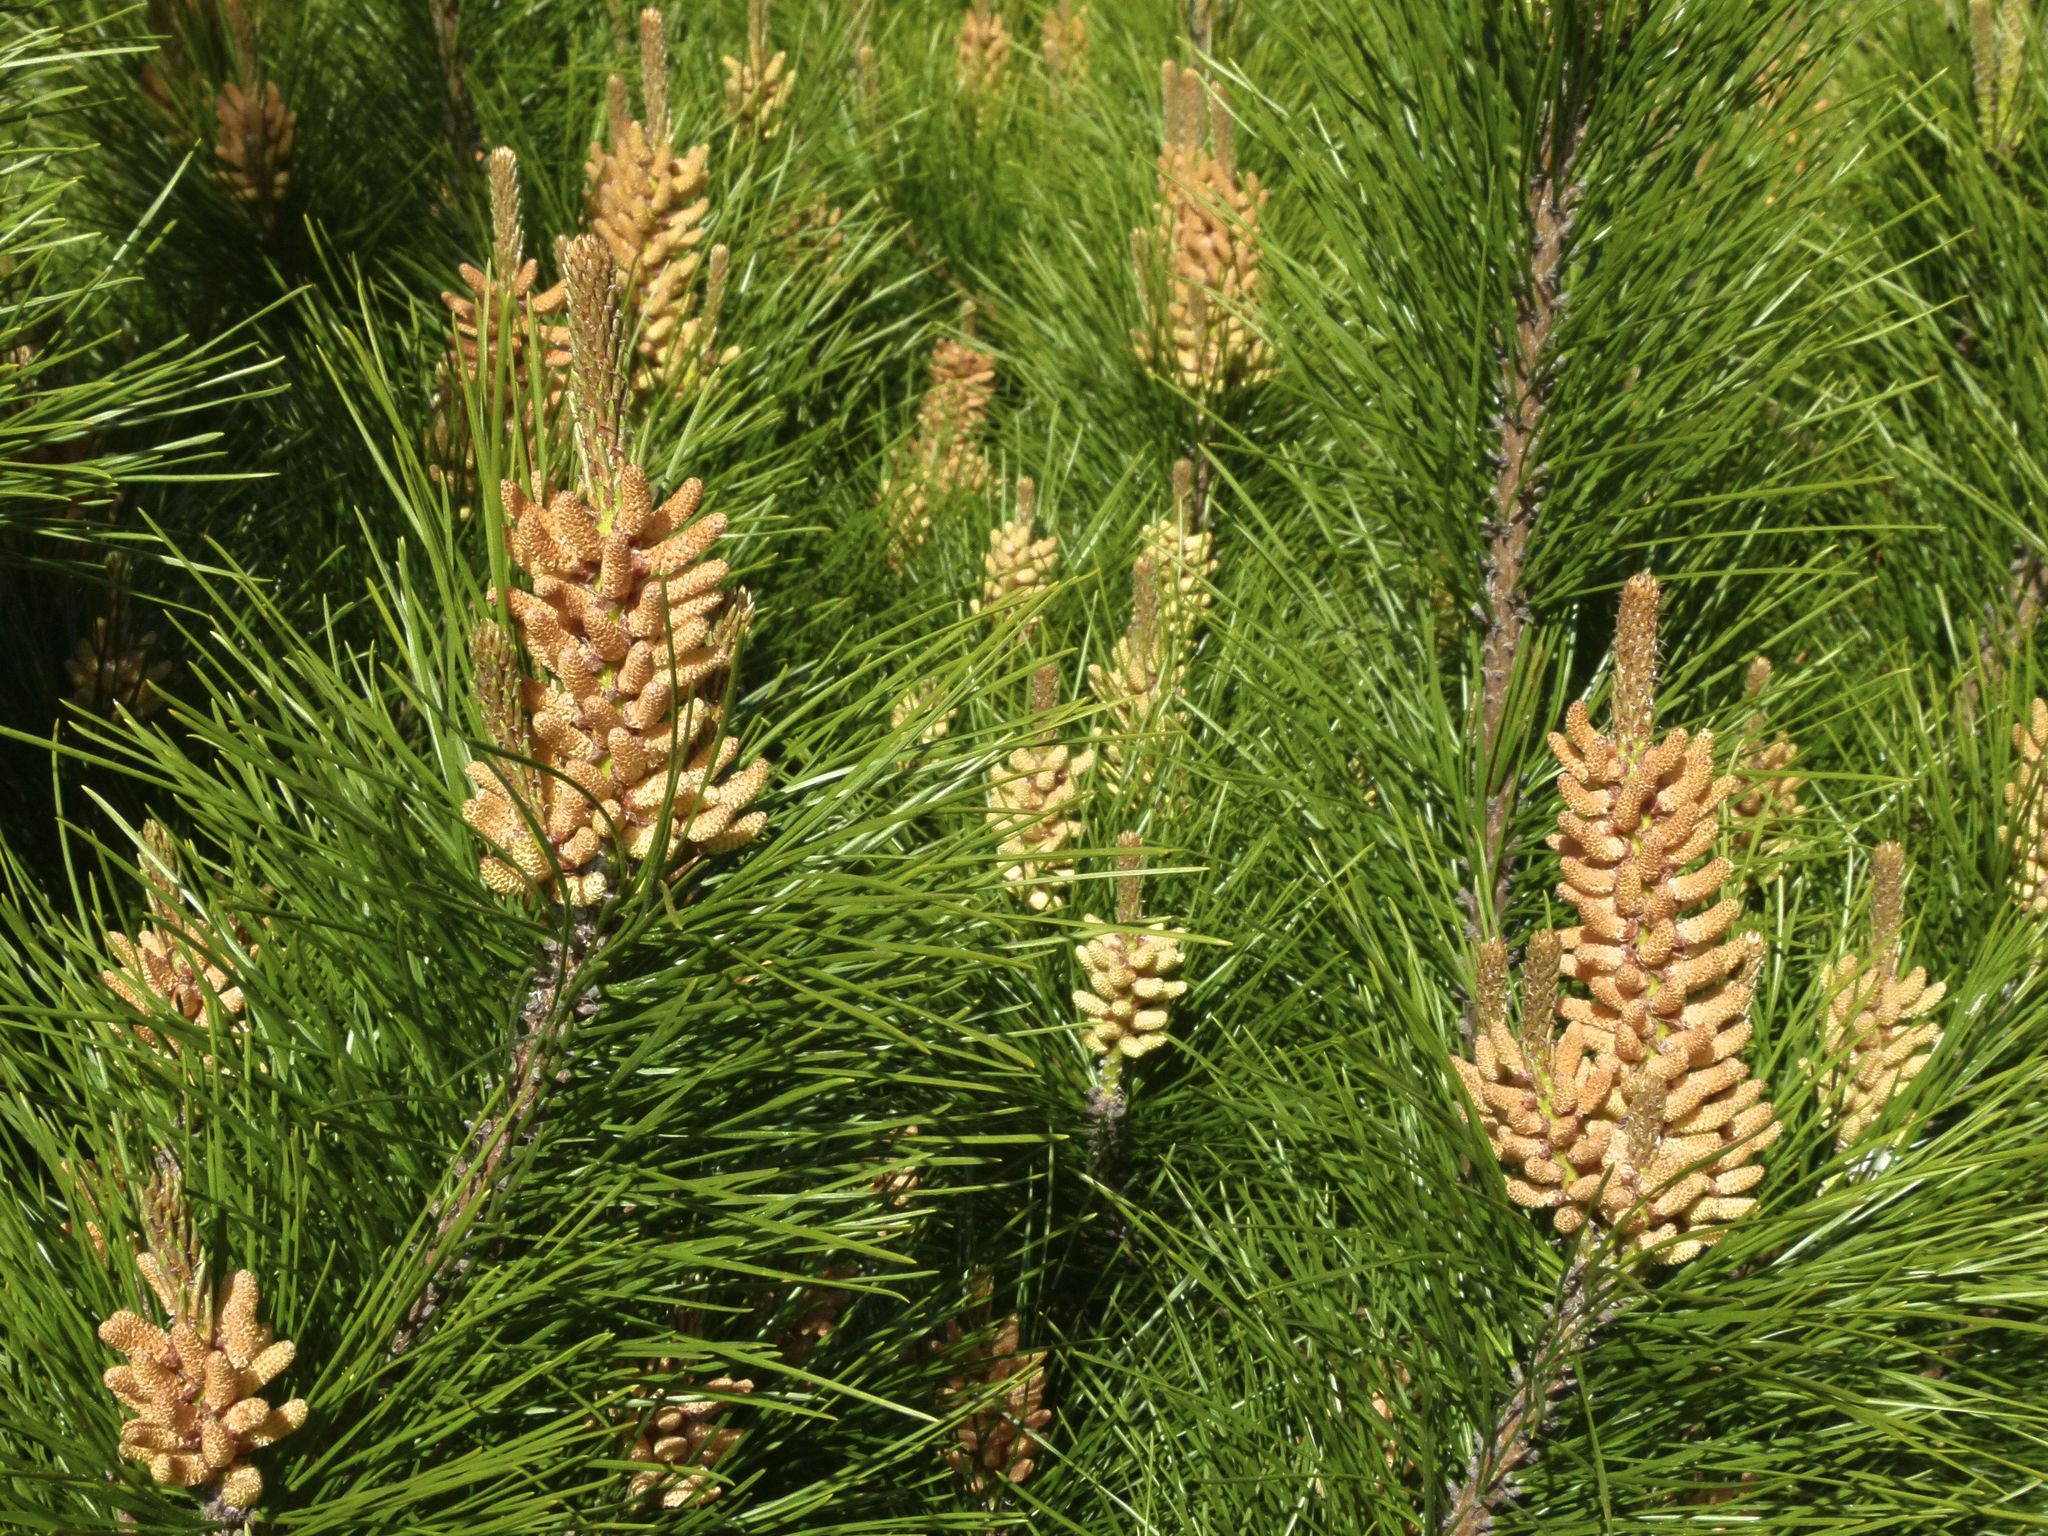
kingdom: Plantae
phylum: Tracheophyta
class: Pinopsida
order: Pinales
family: Pinaceae
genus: Pinus
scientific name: Pinus radiata
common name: Monterey pine
